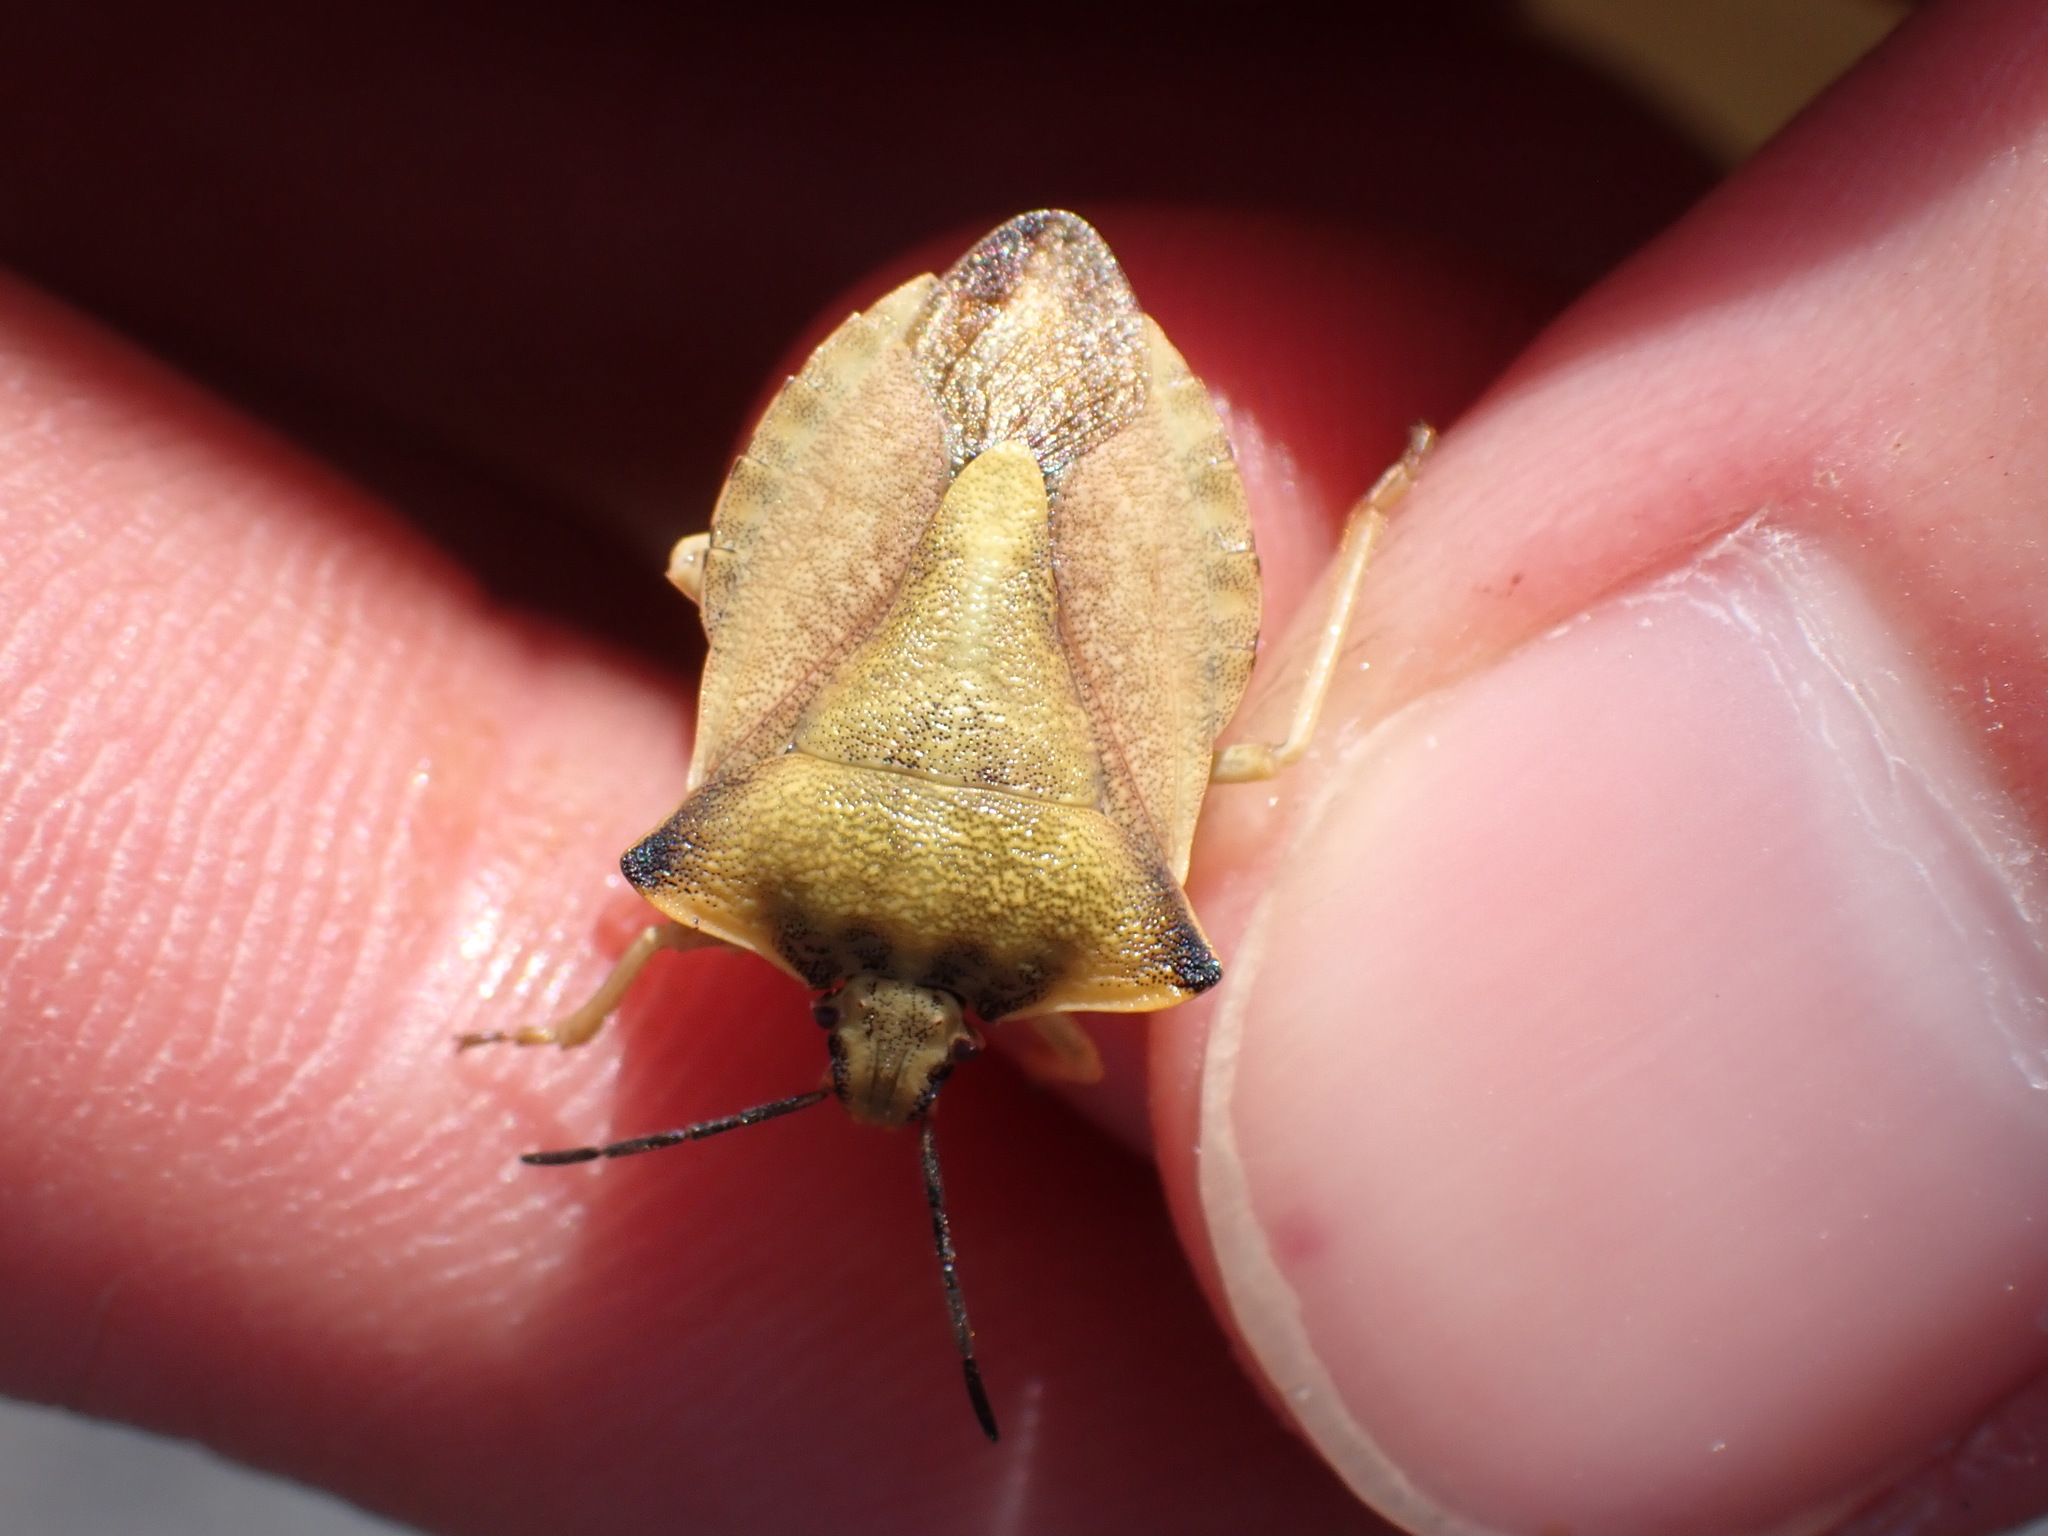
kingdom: Animalia
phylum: Arthropoda
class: Insecta
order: Hemiptera
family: Pentatomidae
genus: Carpocoris
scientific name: Carpocoris fuscispinus
